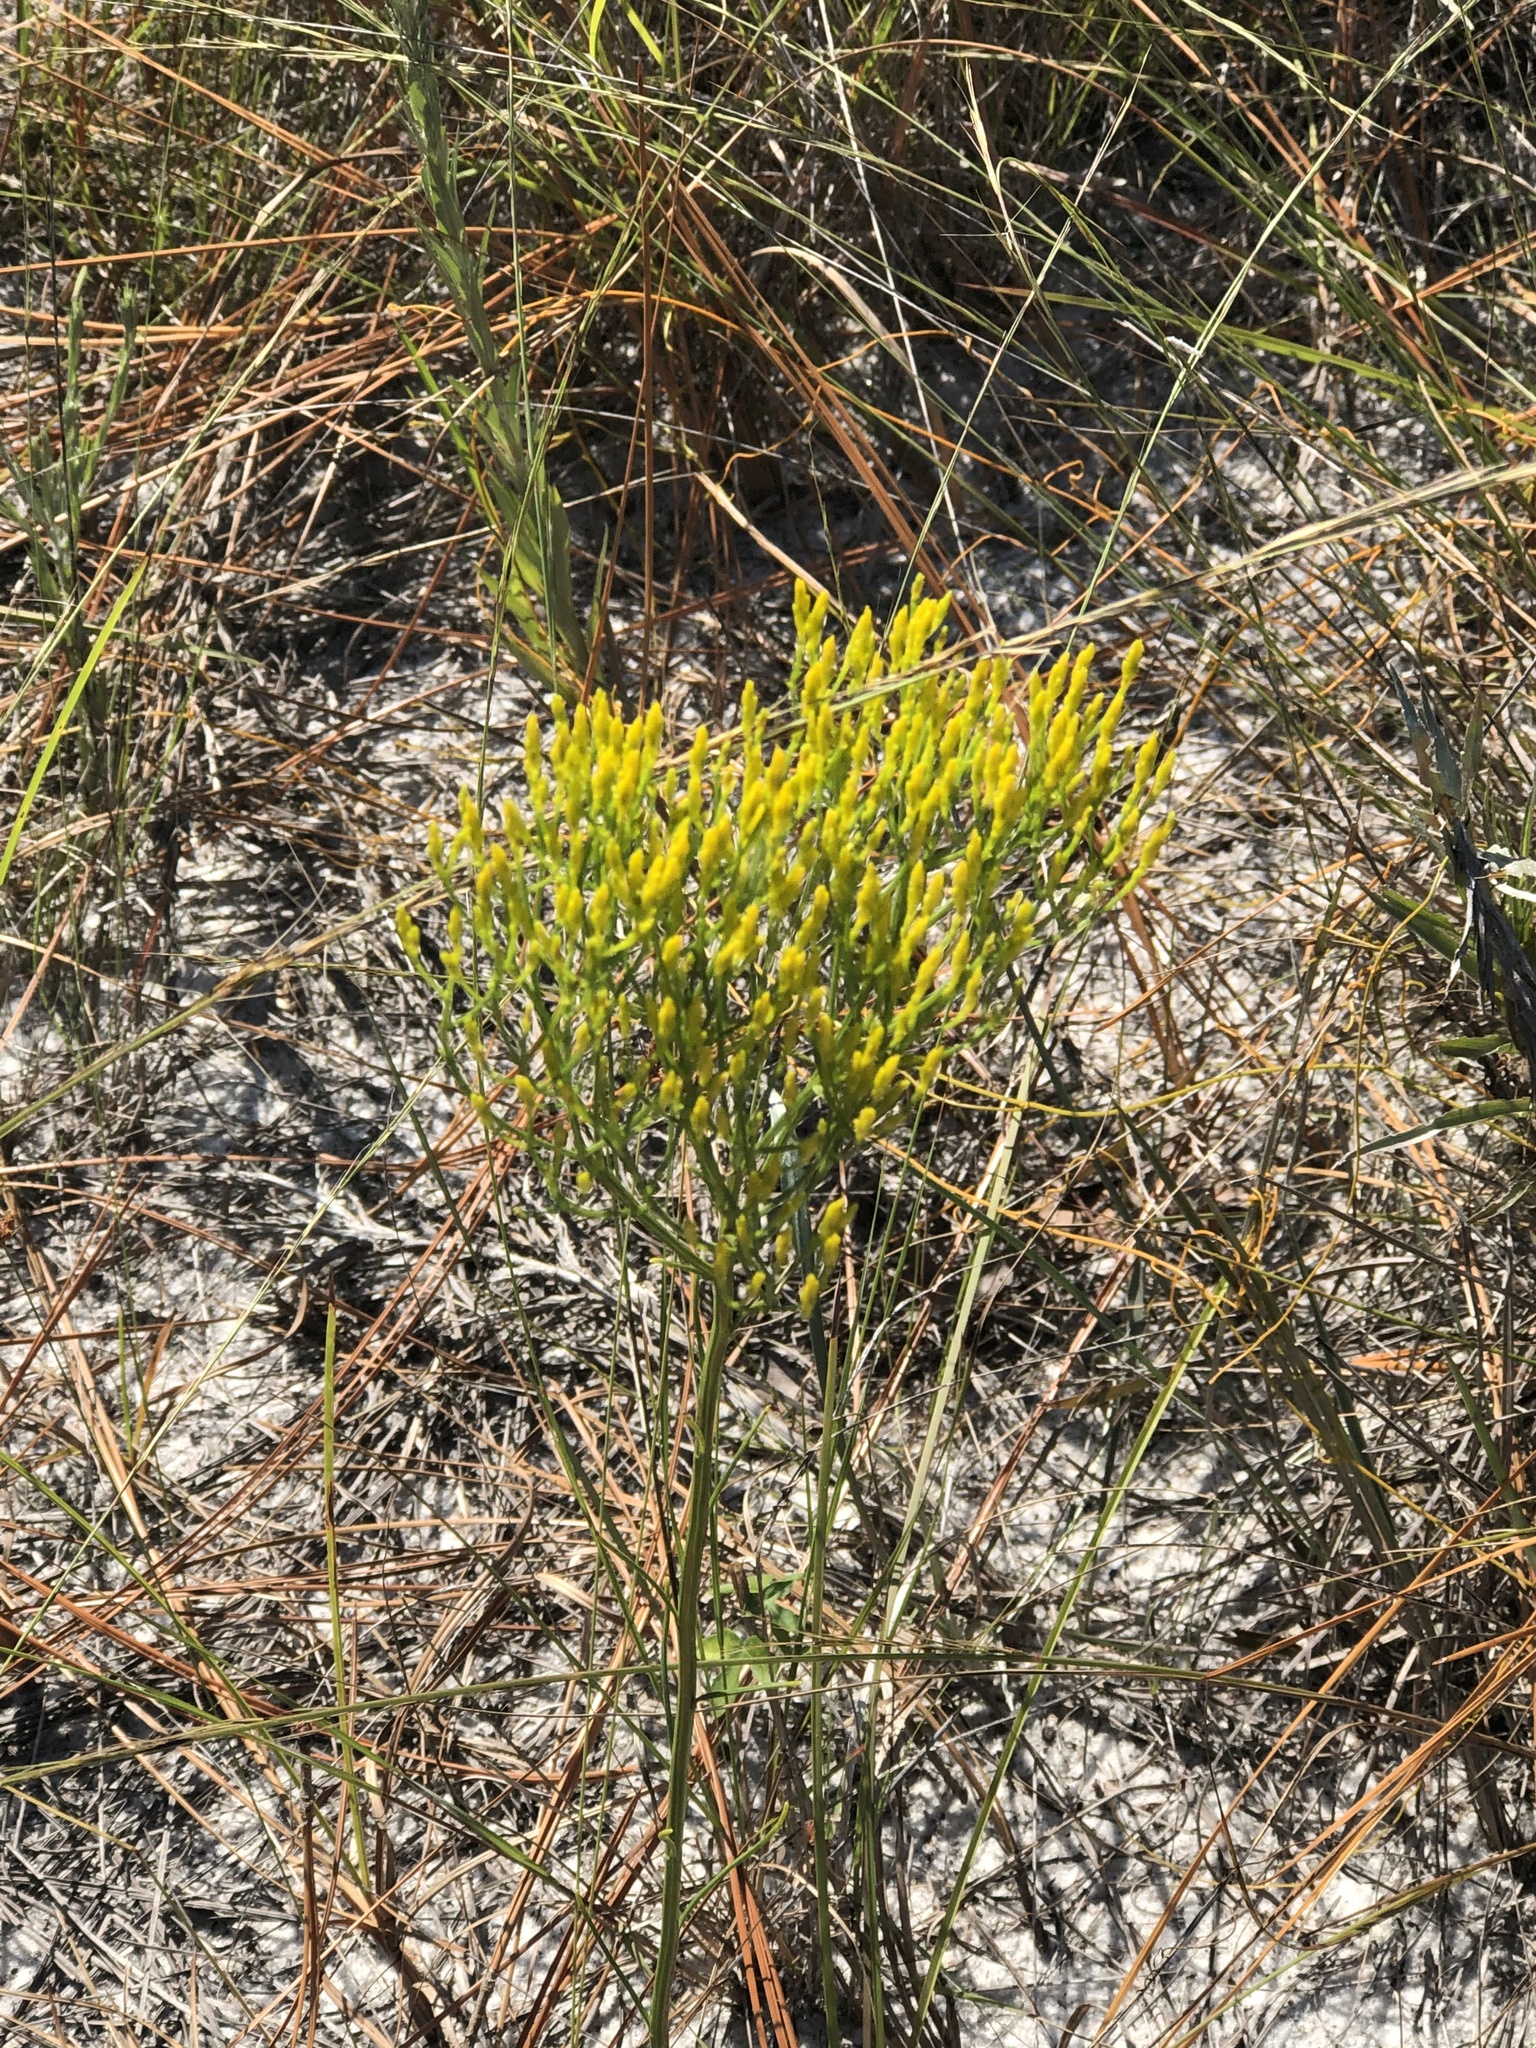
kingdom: Plantae
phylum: Tracheophyta
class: Magnoliopsida
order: Asterales
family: Asteraceae
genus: Bigelowia
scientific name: Bigelowia nuttallii
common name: Nuttall's rayless-goldenrod
